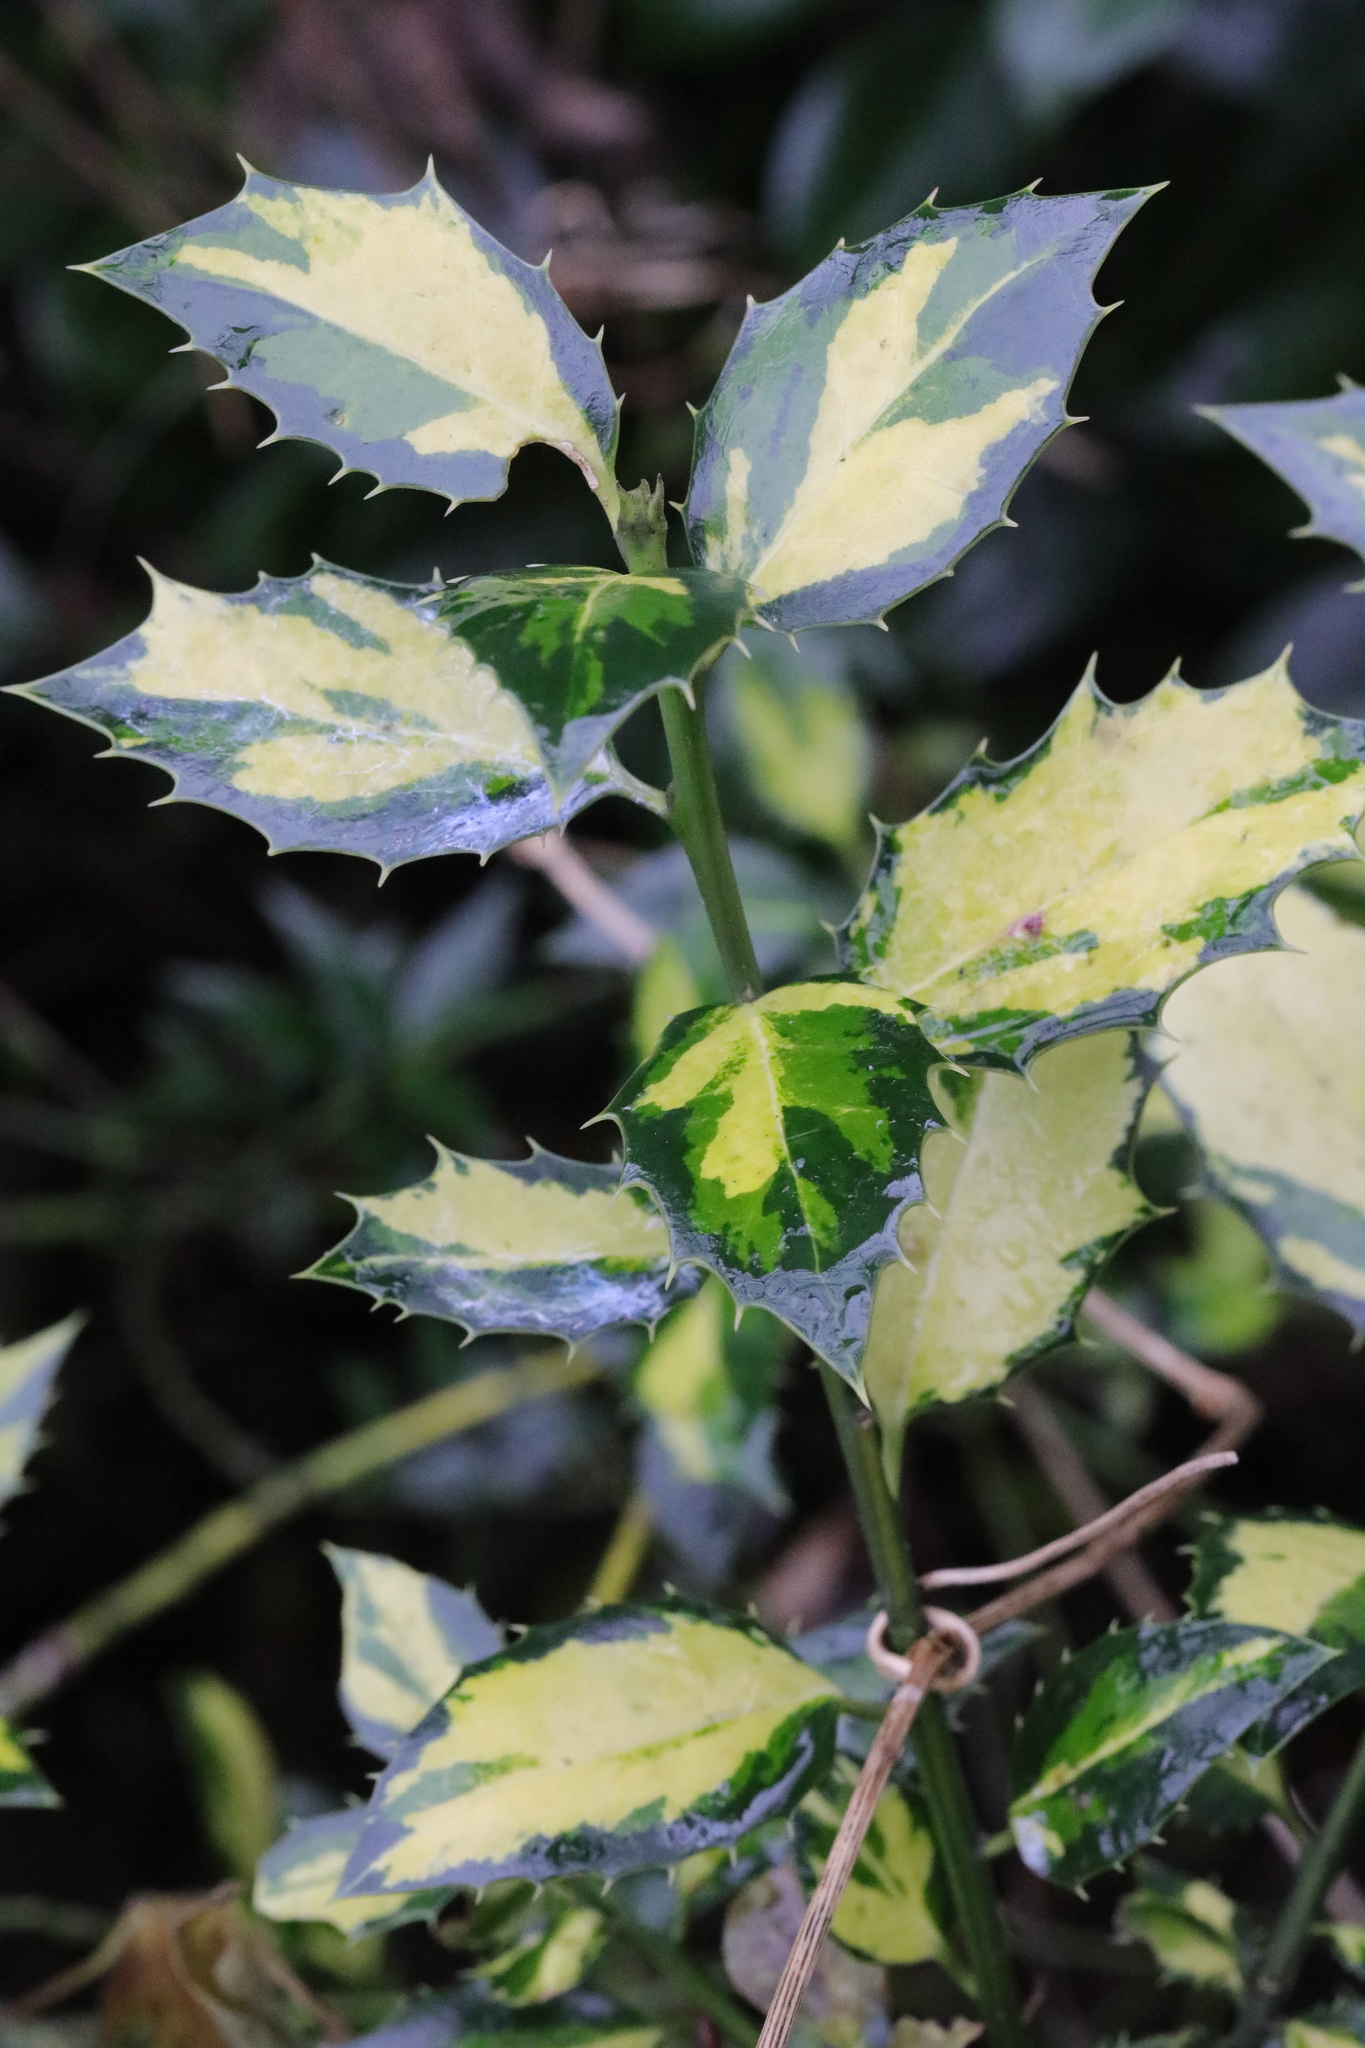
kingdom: Plantae
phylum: Tracheophyta
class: Magnoliopsida
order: Aquifoliales
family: Aquifoliaceae
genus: Ilex
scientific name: Ilex aquifolium
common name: English holly
